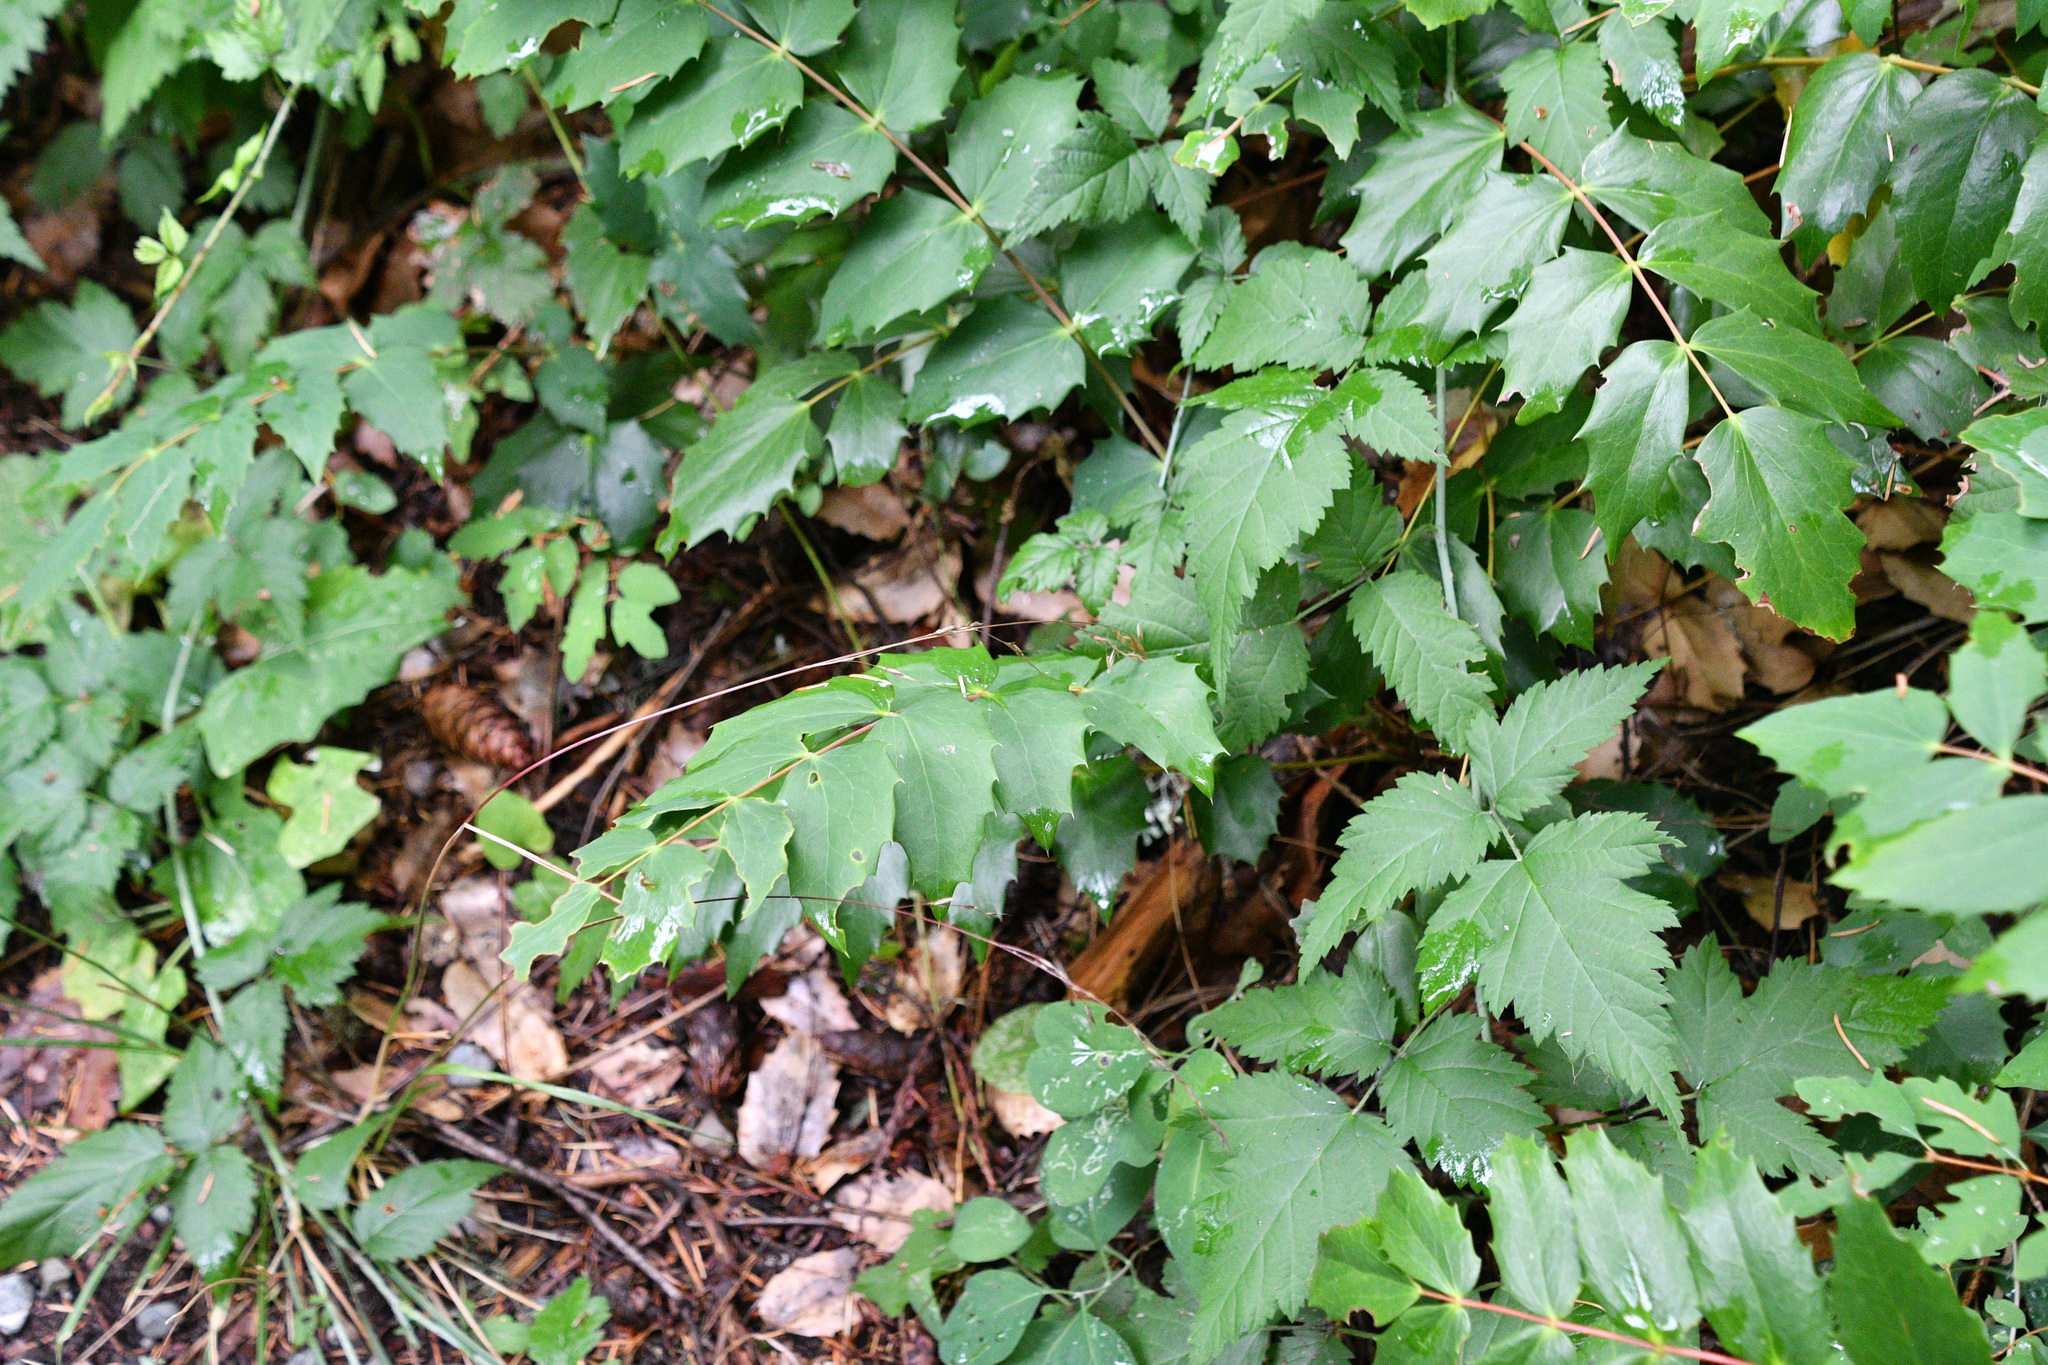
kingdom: Plantae
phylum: Tracheophyta
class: Magnoliopsida
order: Rosales
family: Rosaceae
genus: Rubus
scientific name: Rubus ursinus
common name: Pacific blackberry
